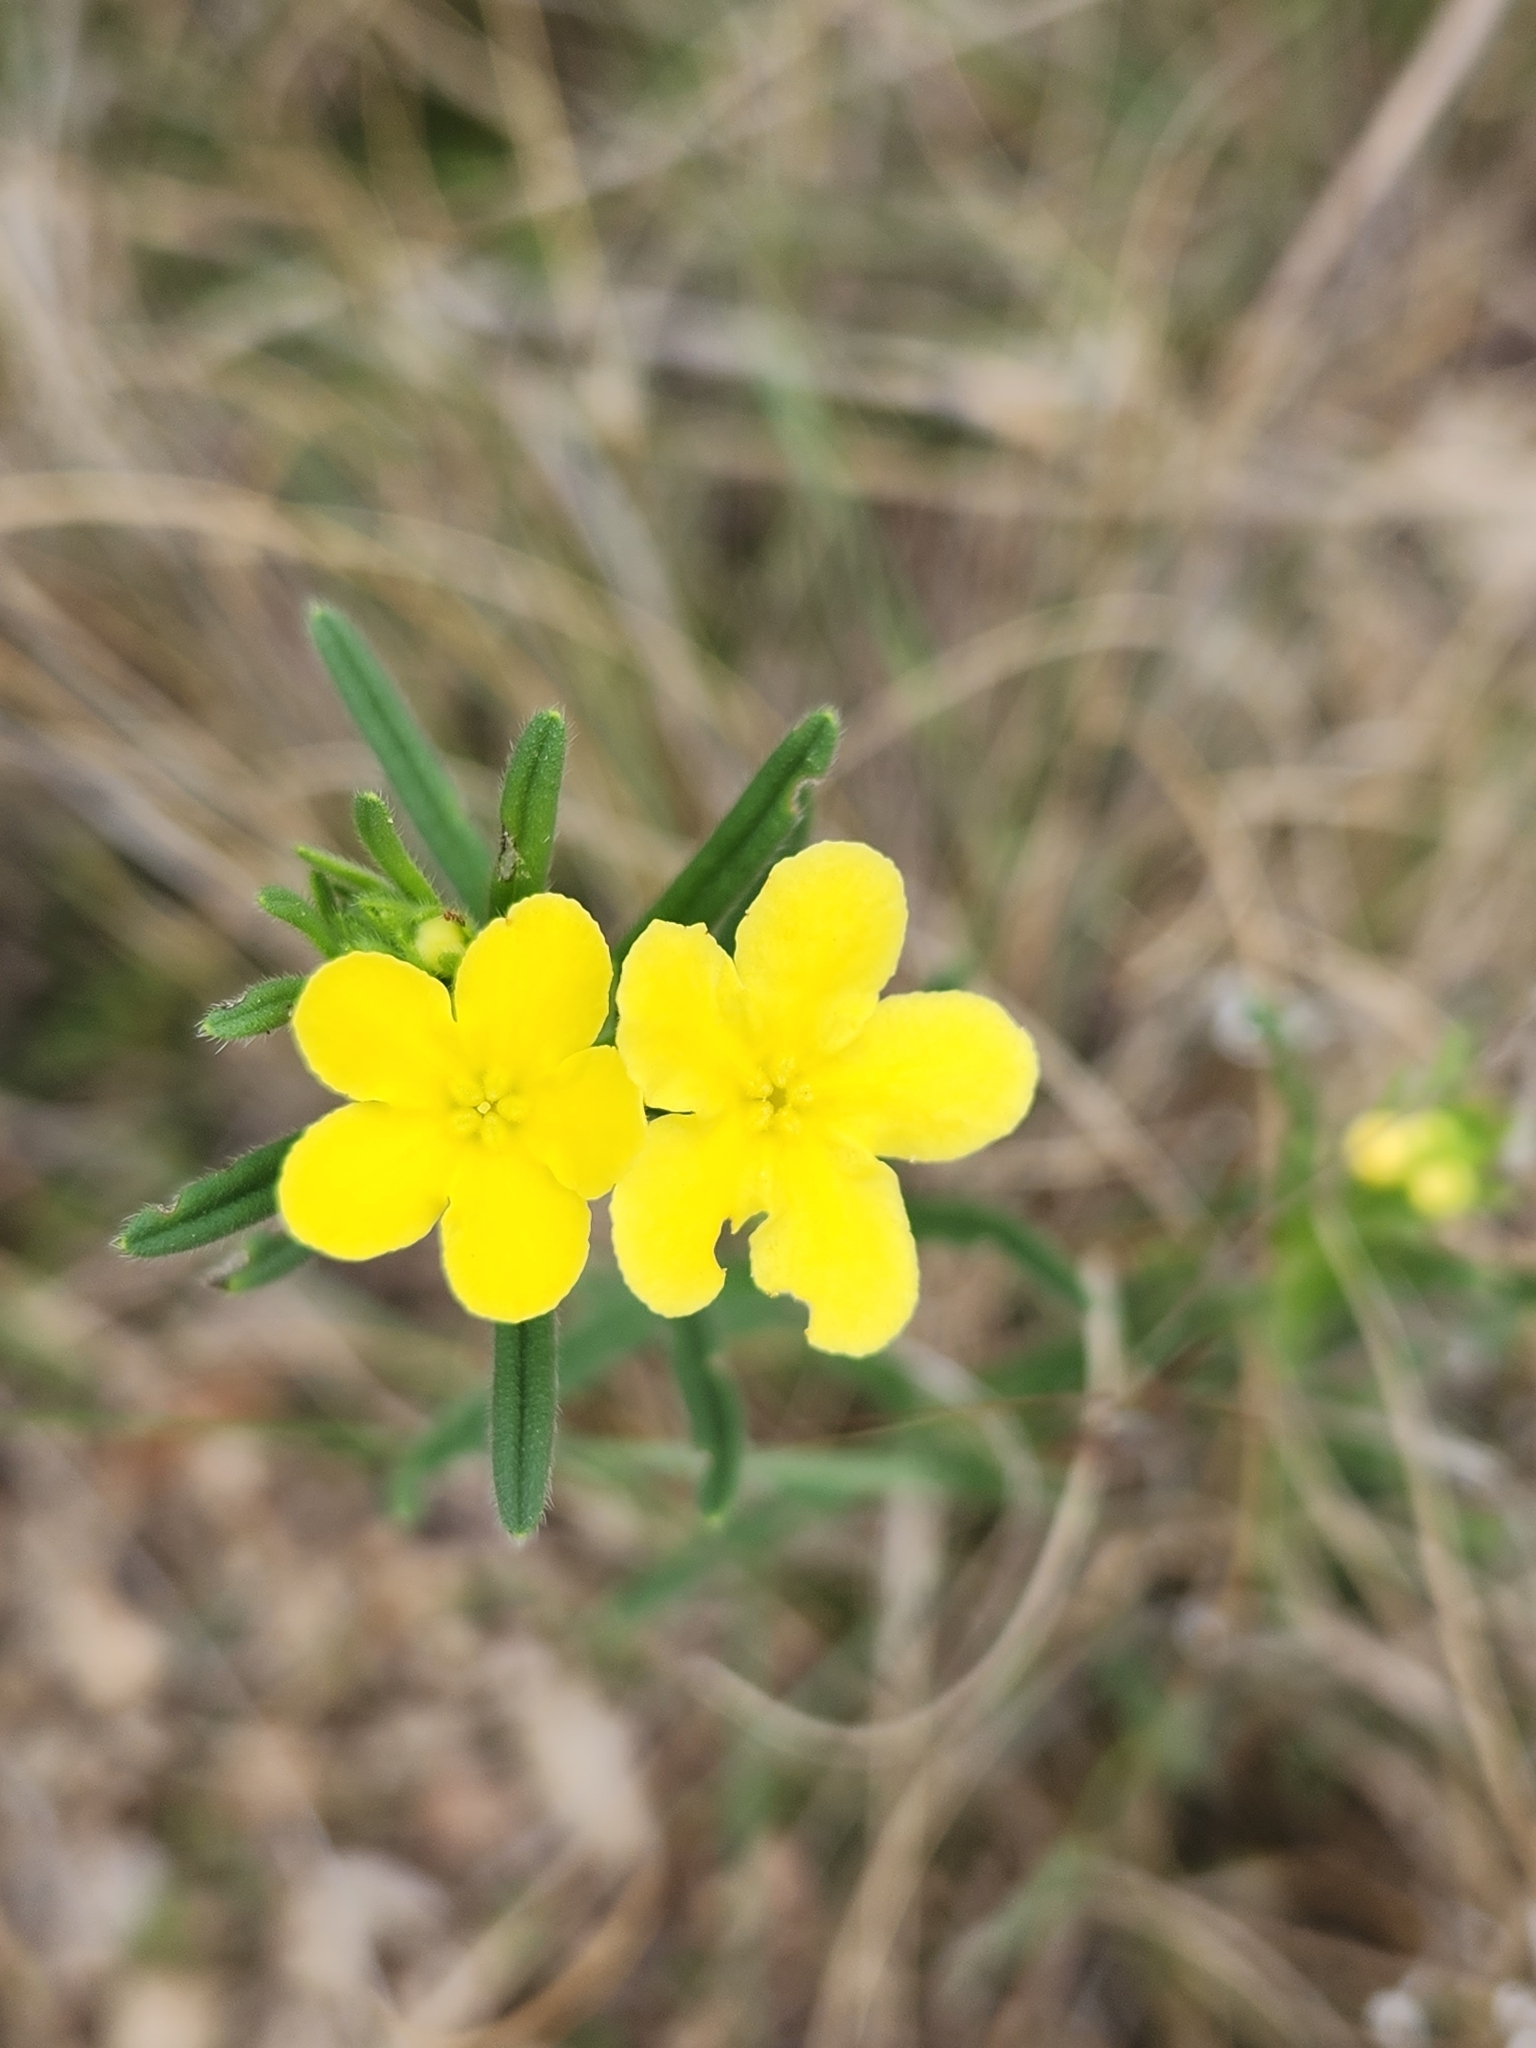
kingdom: Plantae
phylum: Tracheophyta
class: Magnoliopsida
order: Boraginales
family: Boraginaceae
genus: Lithospermum
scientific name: Lithospermum mirabile
